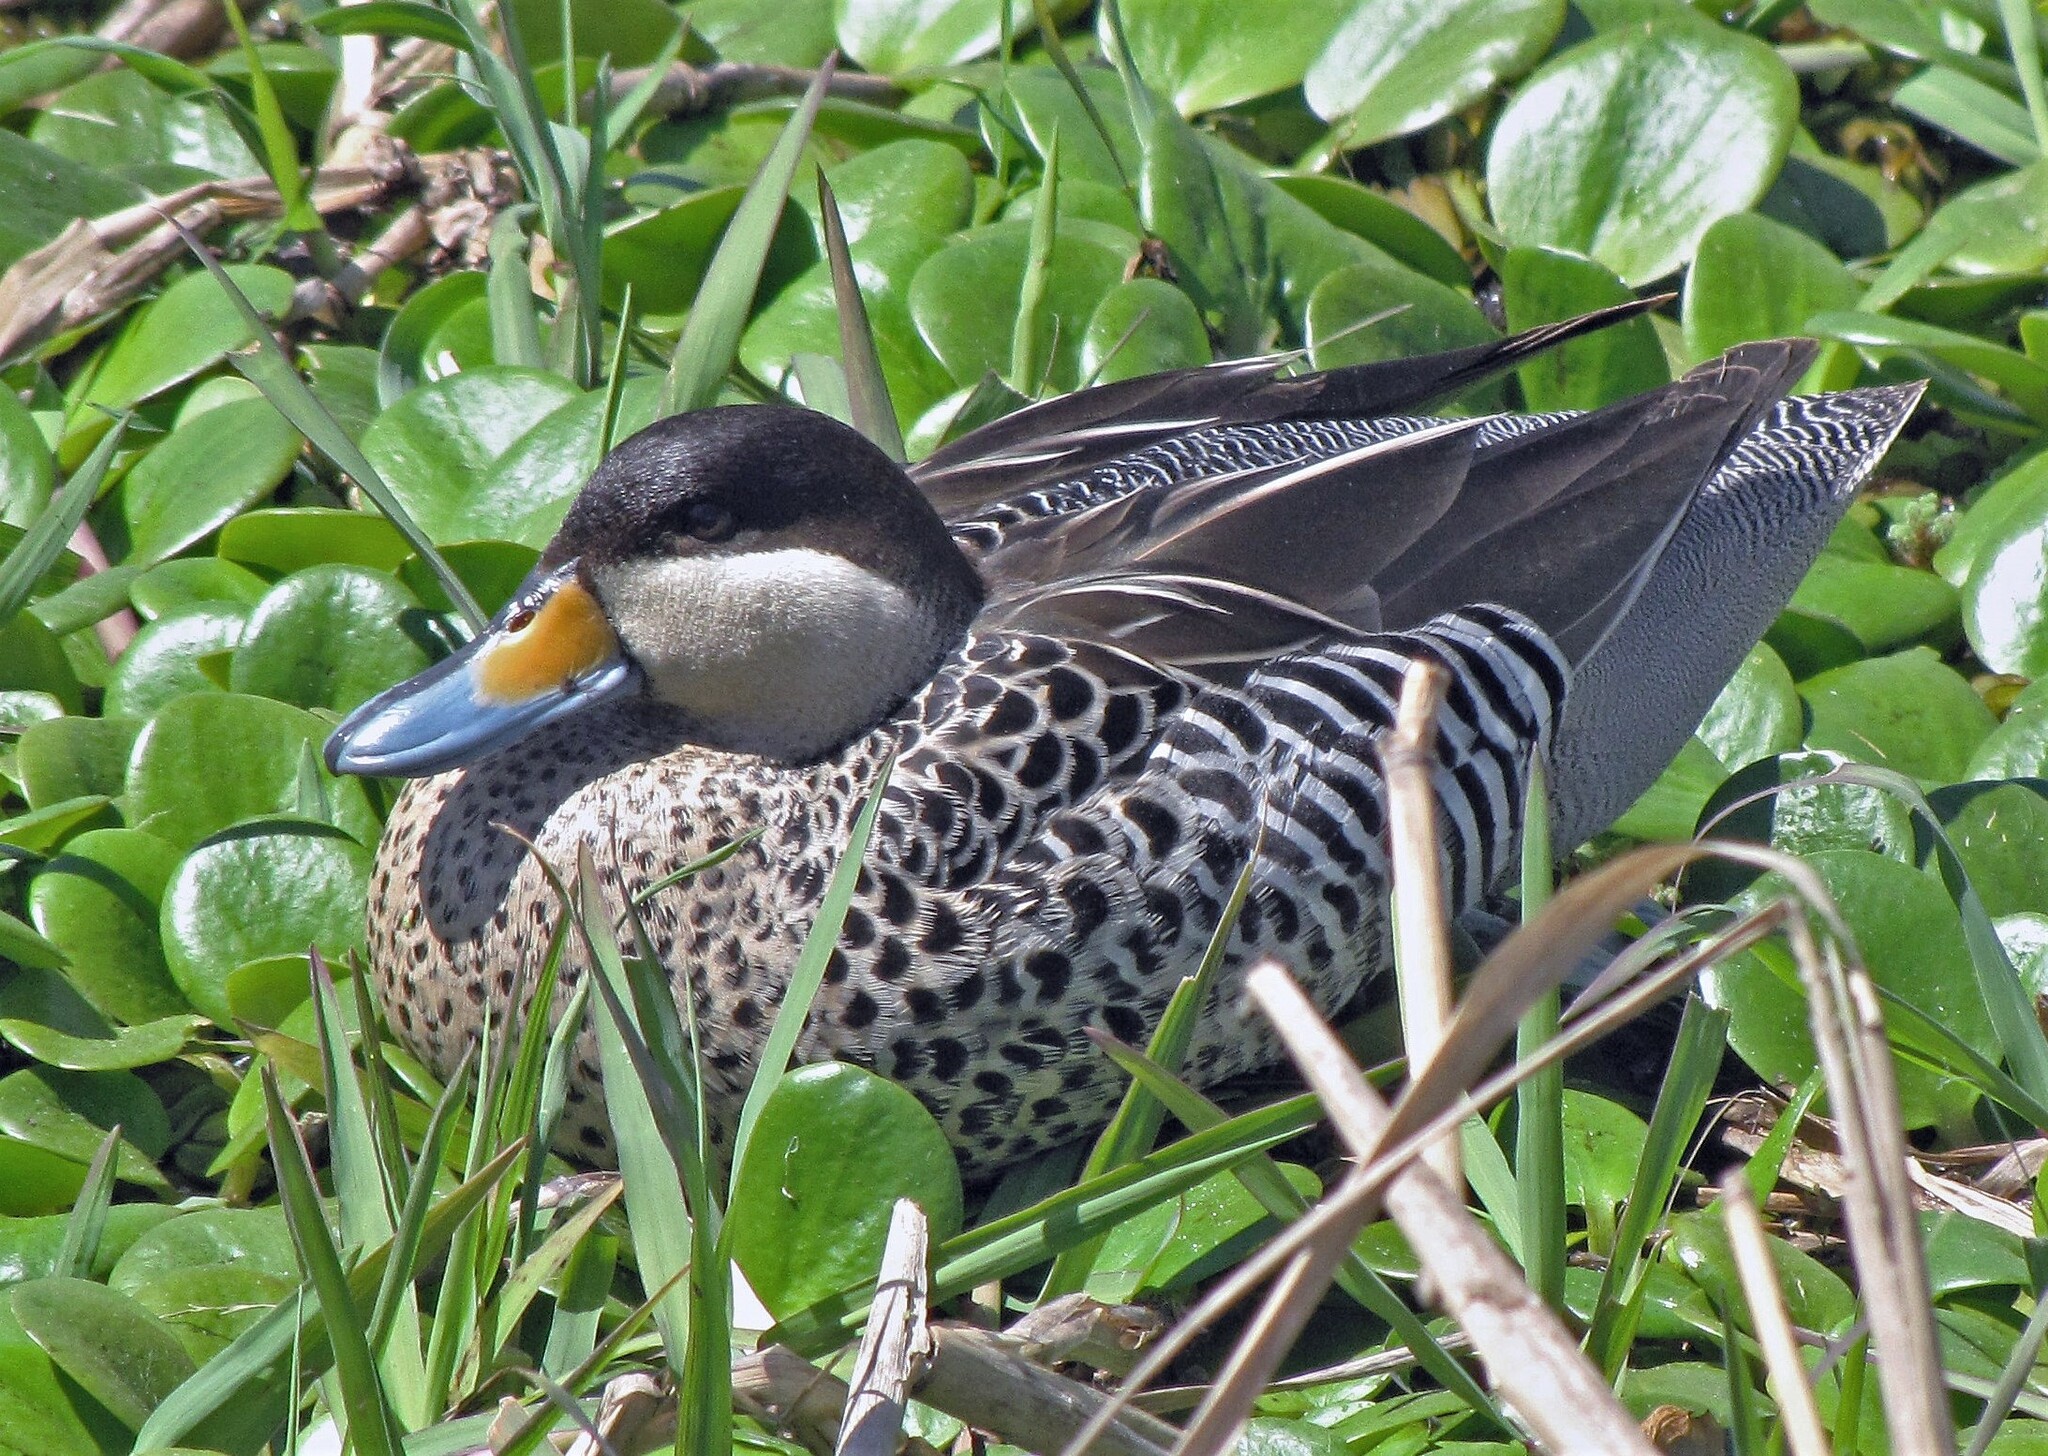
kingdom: Animalia
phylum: Chordata
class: Aves
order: Anseriformes
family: Anatidae
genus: Spatula
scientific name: Spatula versicolor
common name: Silver teal
